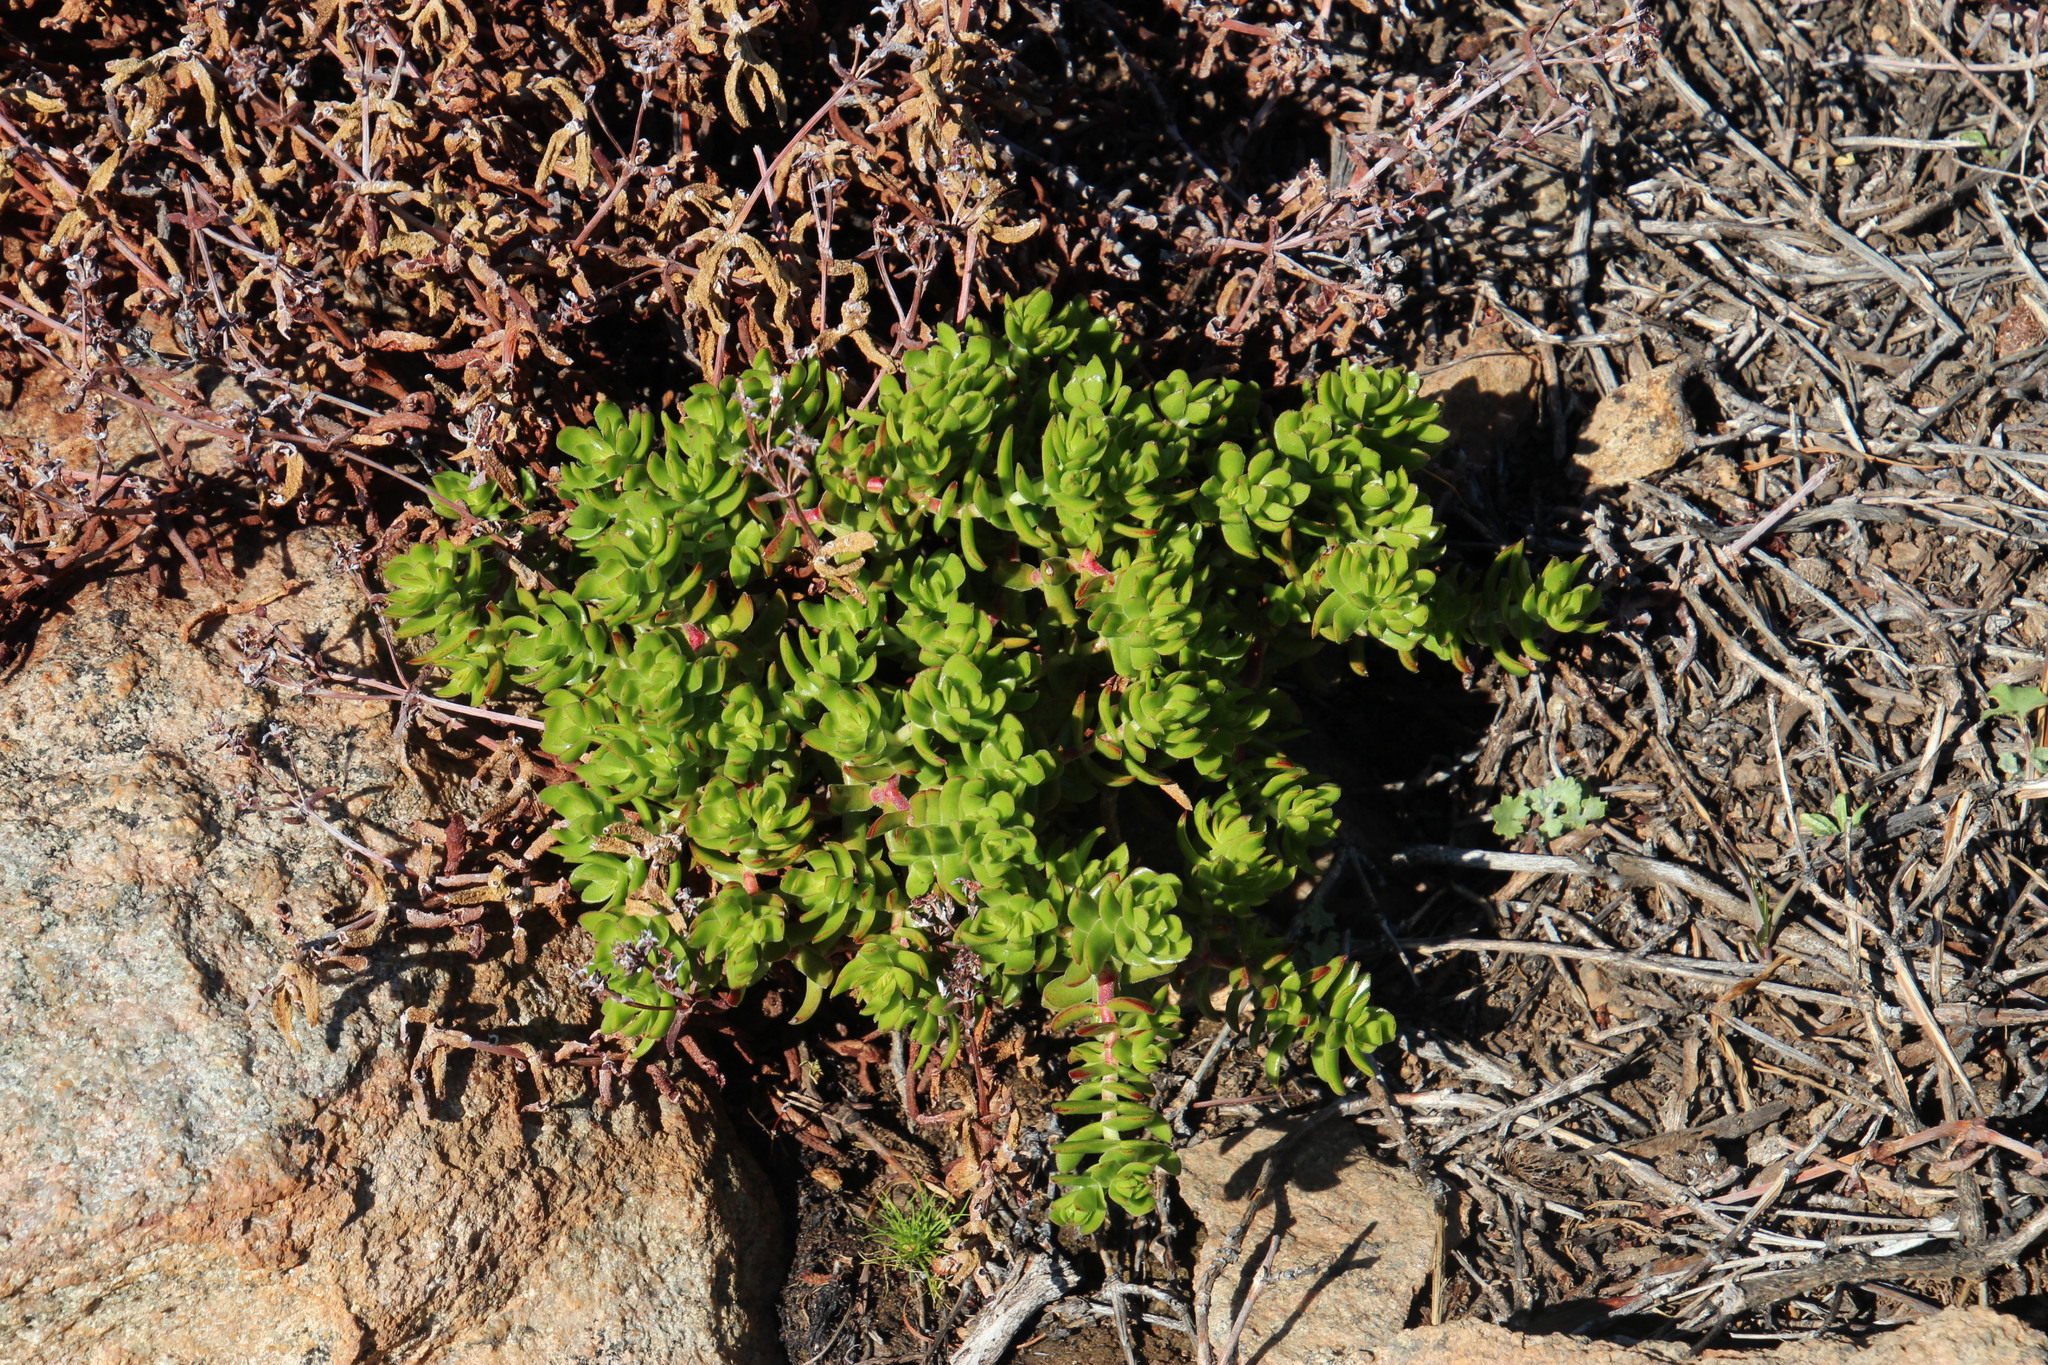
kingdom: Plantae
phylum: Tracheophyta
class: Magnoliopsida
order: Saxifragales
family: Crassulaceae
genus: Crassula
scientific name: Crassula undulata
